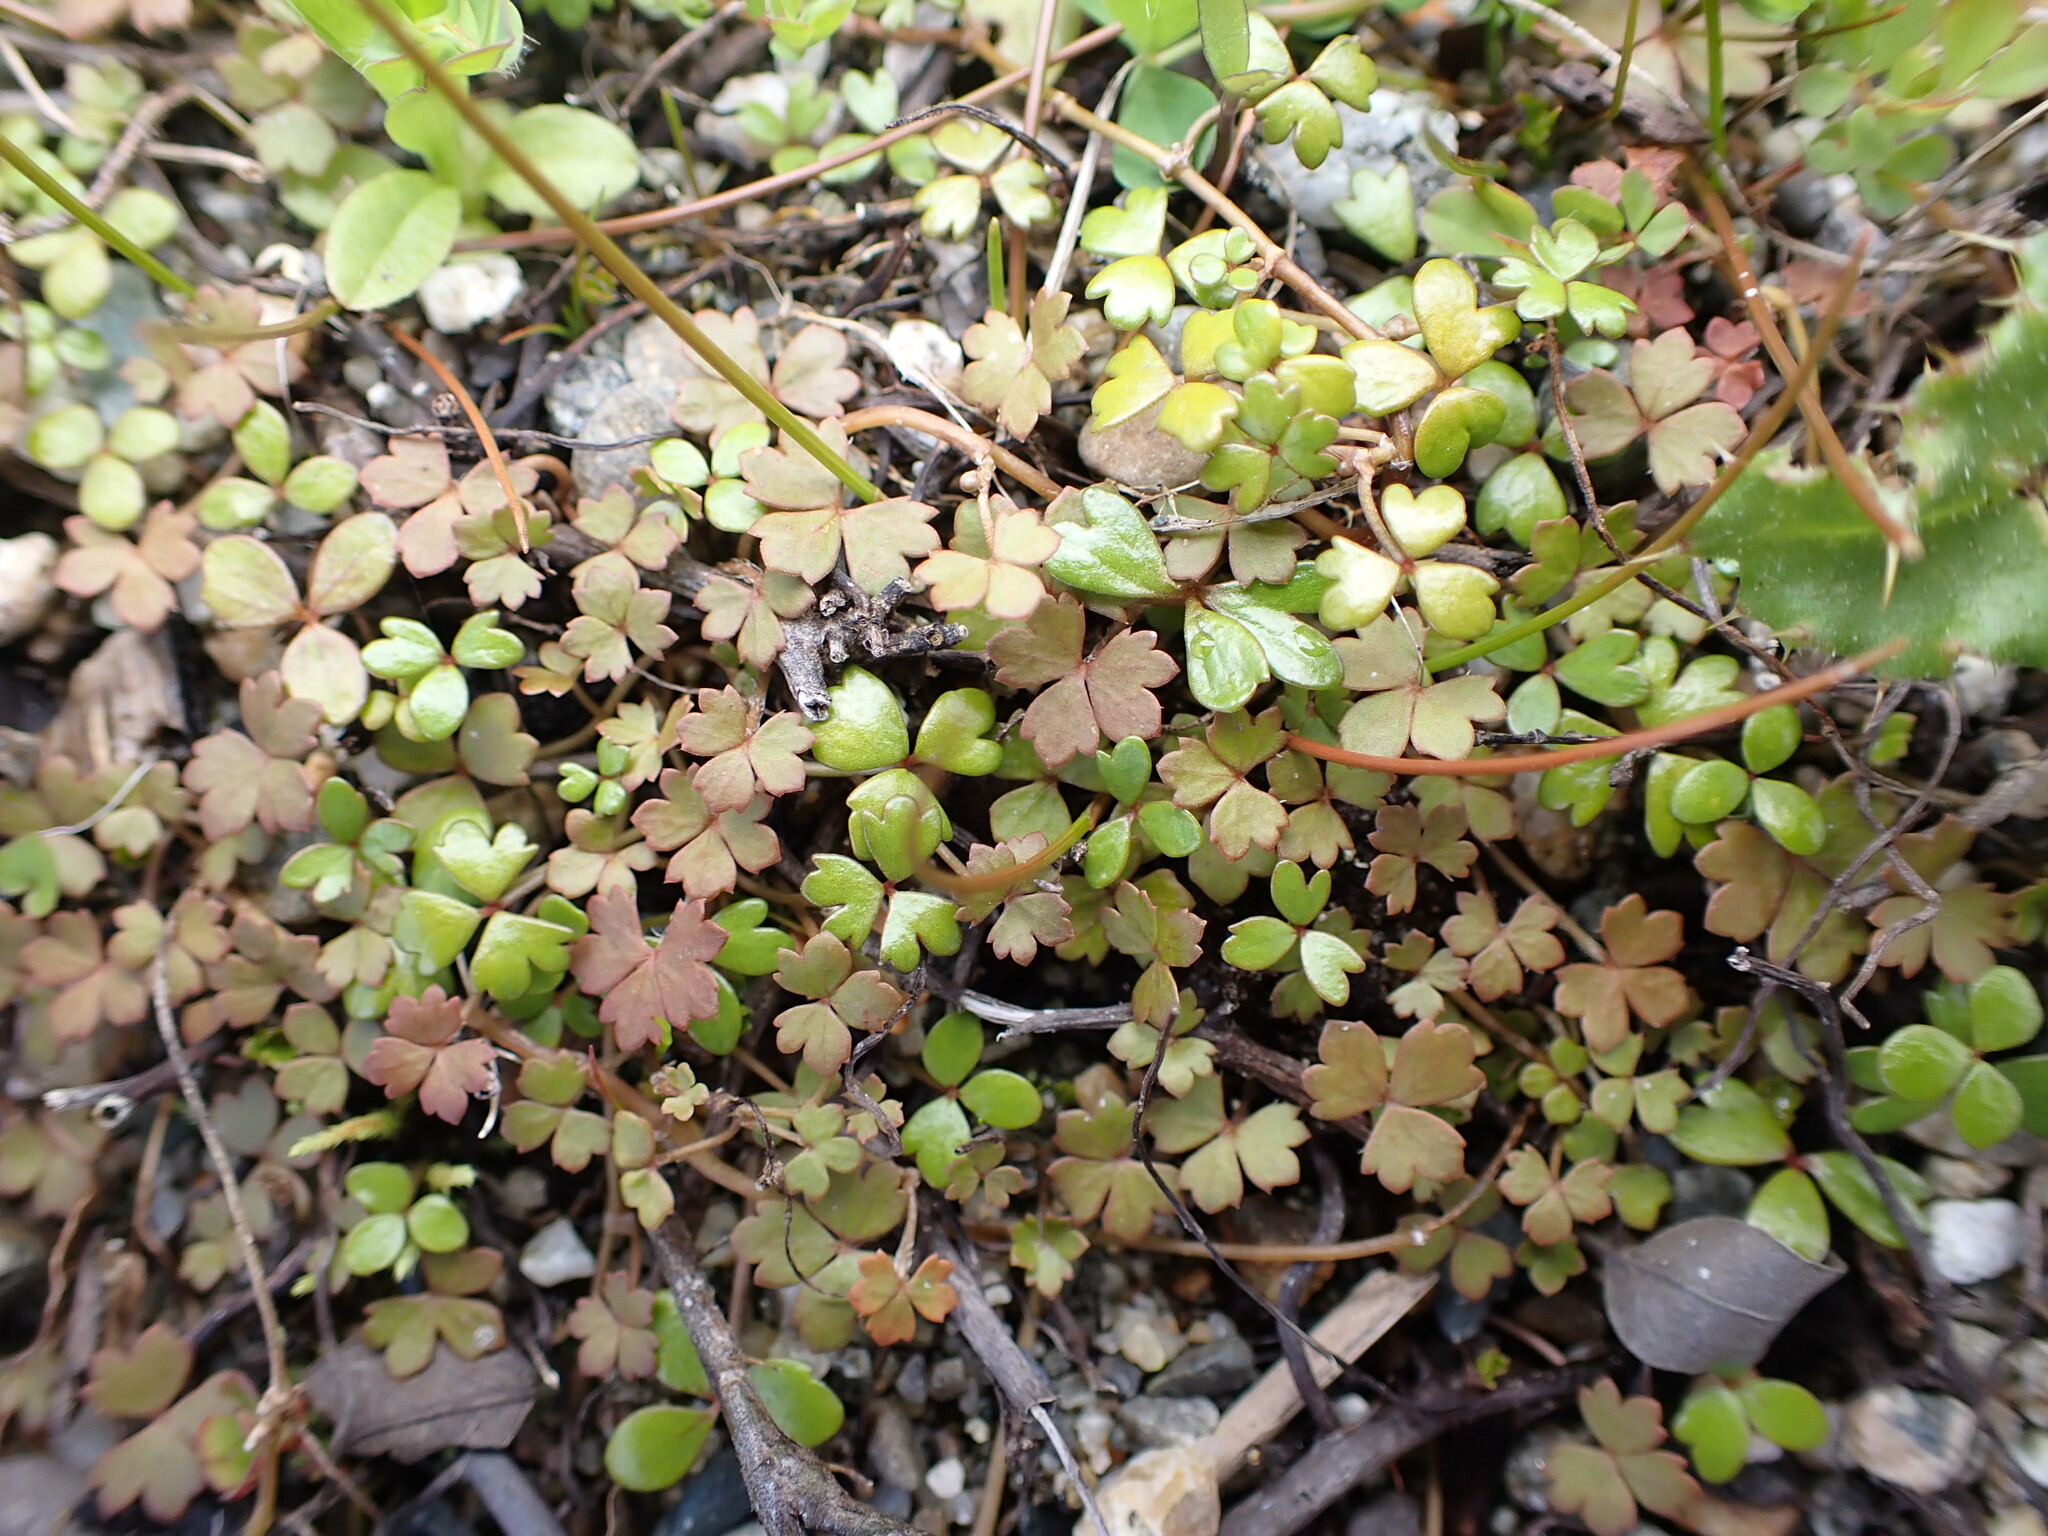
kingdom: Plantae
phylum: Tracheophyta
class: Magnoliopsida
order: Apiales
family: Araliaceae
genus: Hydrocotyle
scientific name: Hydrocotyle sulcata
